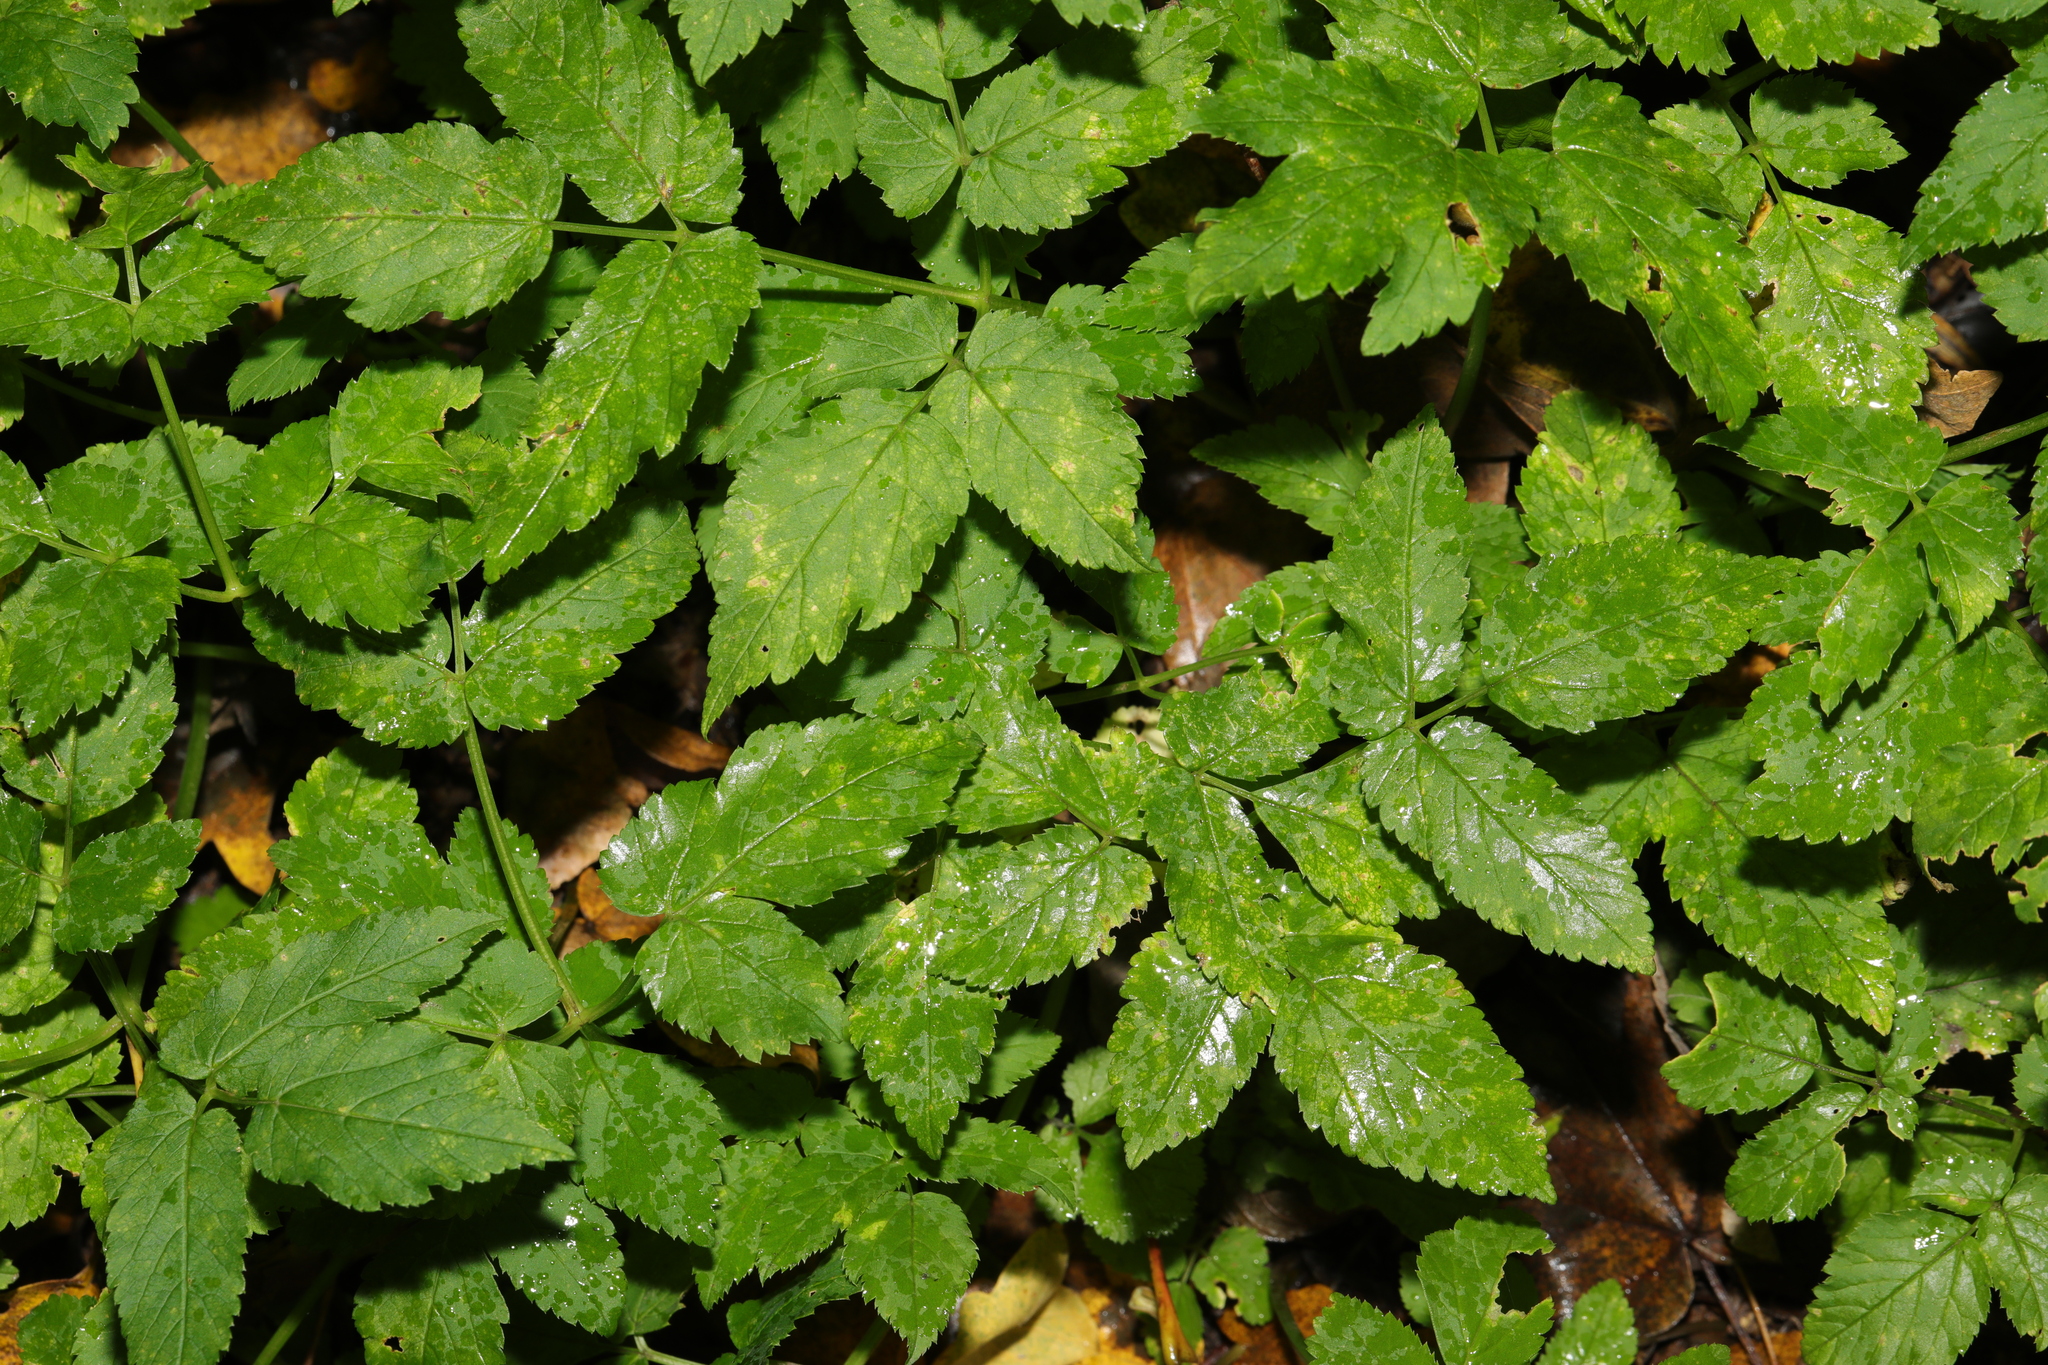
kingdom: Plantae
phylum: Tracheophyta
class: Magnoliopsida
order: Apiales
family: Apiaceae
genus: Aegopodium
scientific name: Aegopodium podagraria
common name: Ground-elder
